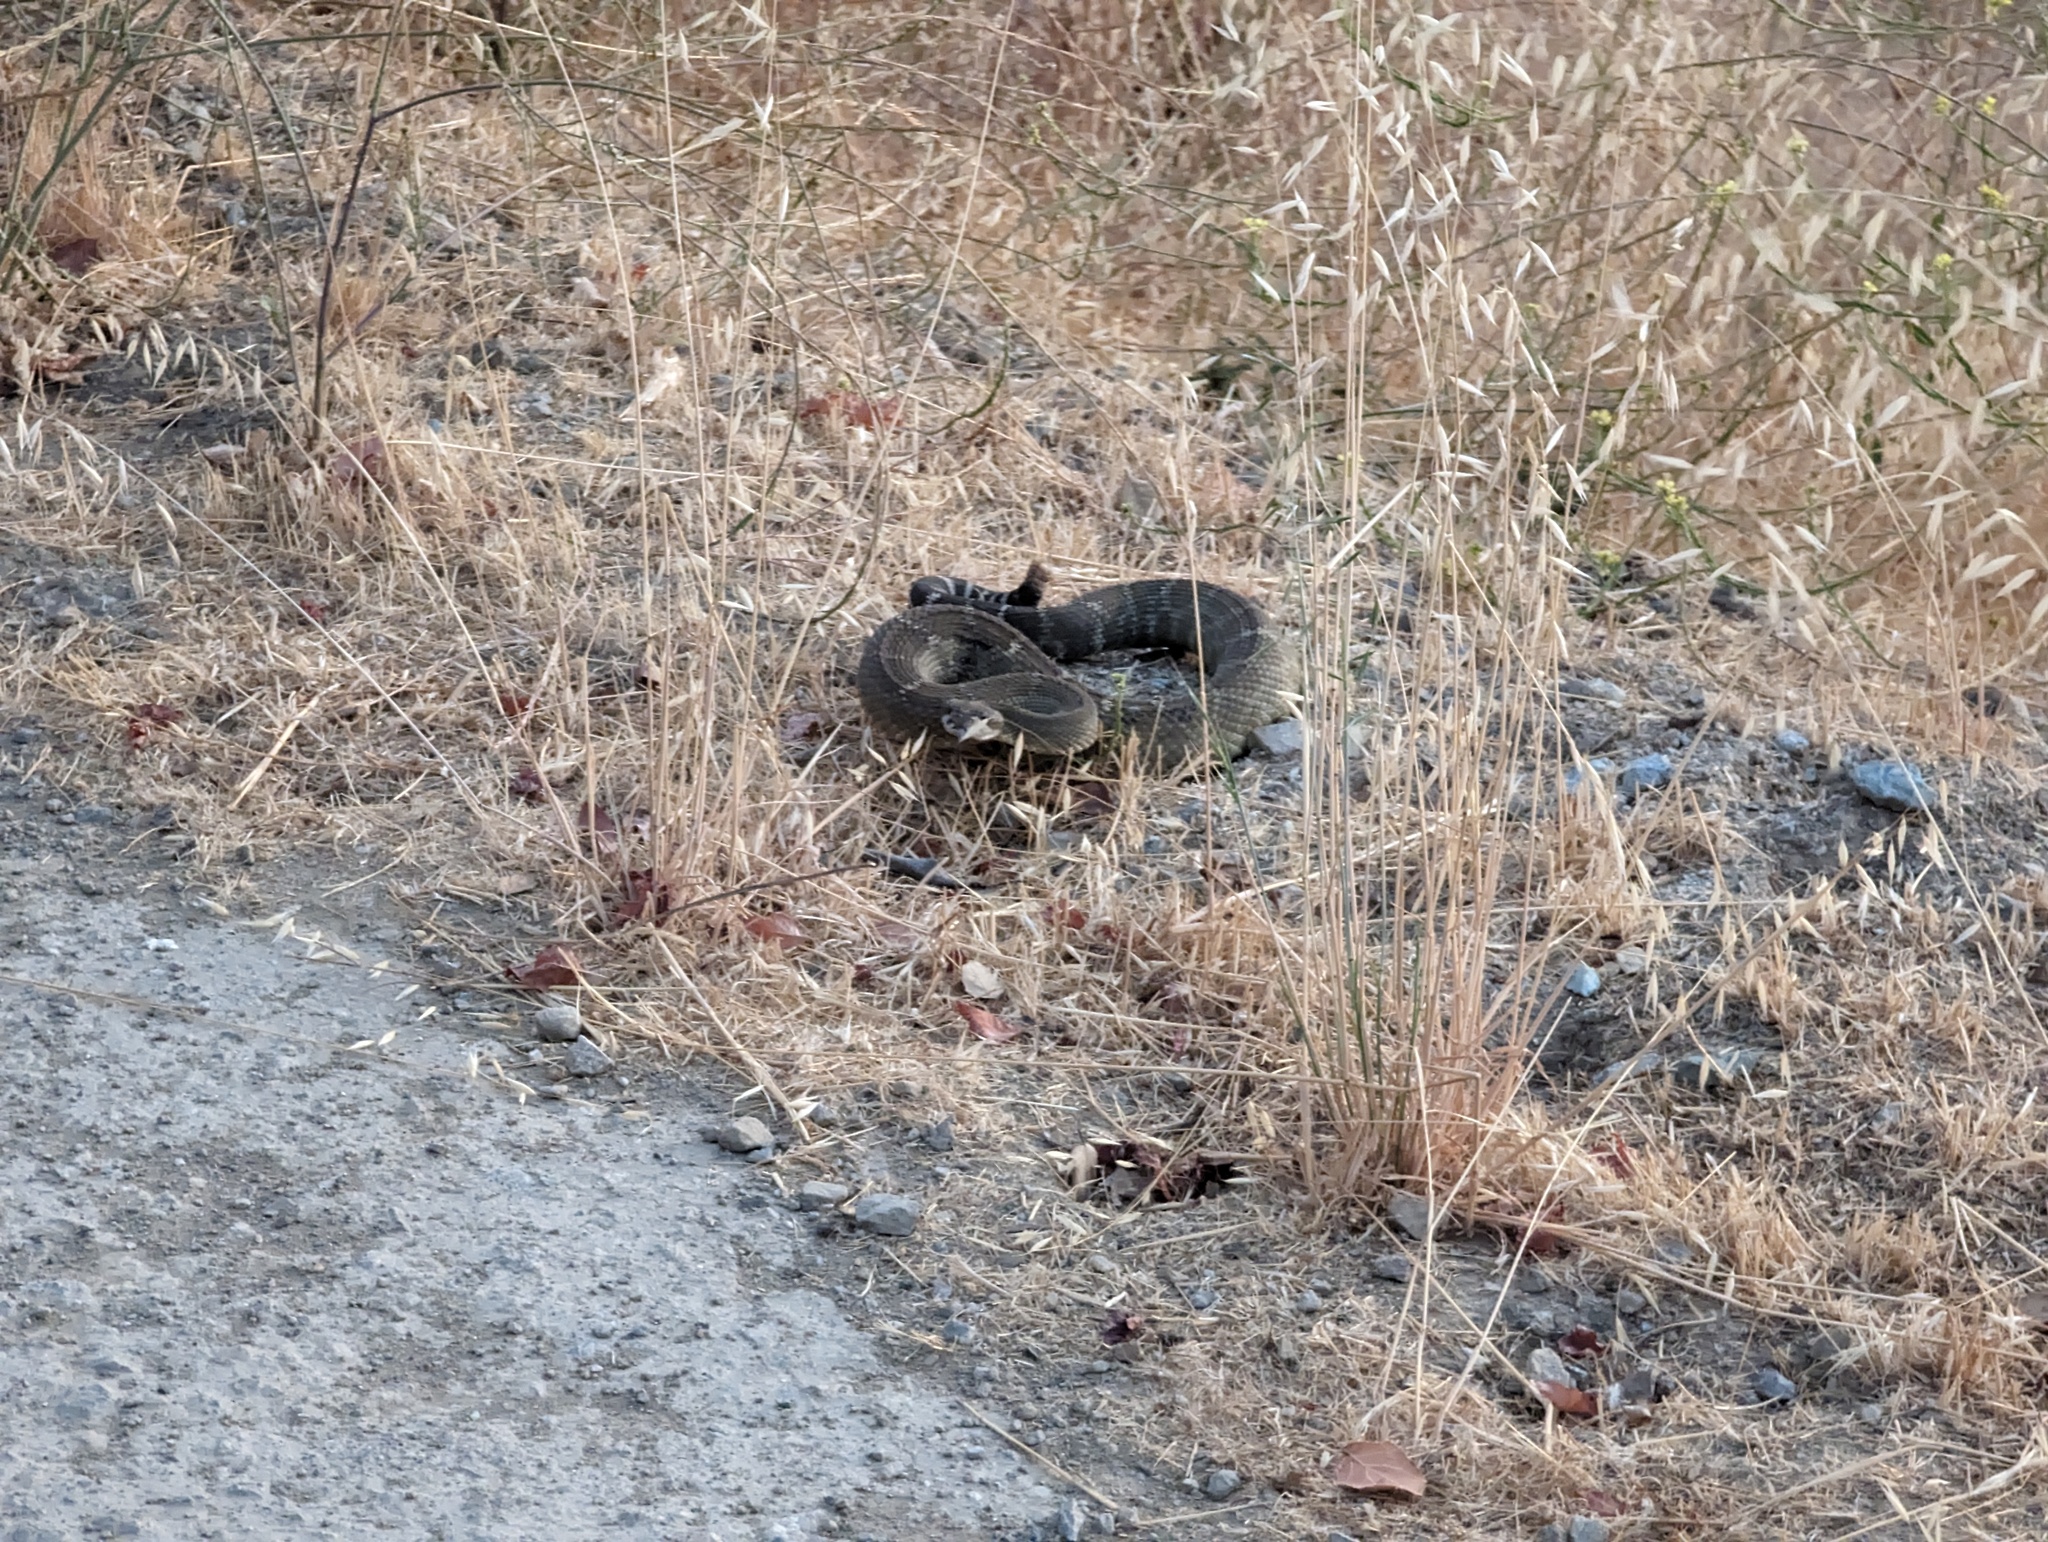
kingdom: Animalia
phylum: Chordata
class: Squamata
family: Viperidae
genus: Crotalus
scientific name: Crotalus oreganus
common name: Abyssus
